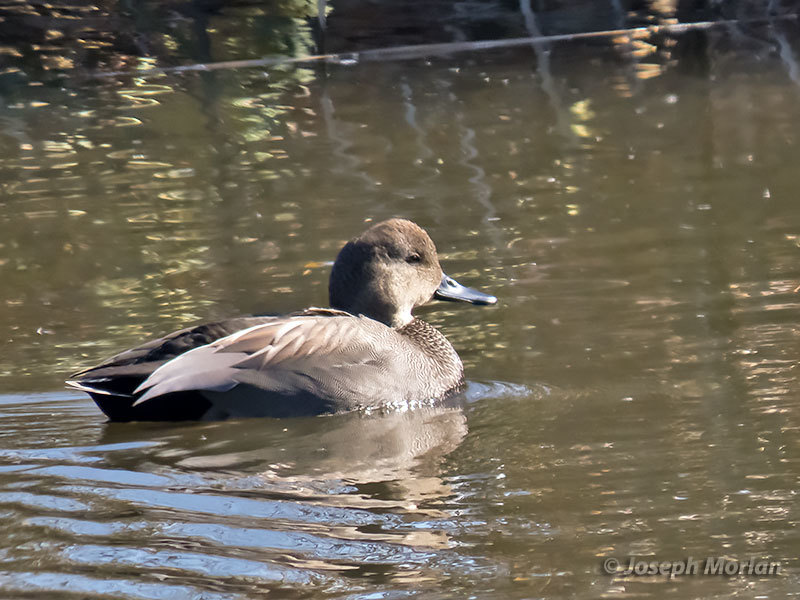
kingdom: Animalia
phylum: Chordata
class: Aves
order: Anseriformes
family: Anatidae
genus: Mareca
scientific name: Mareca strepera
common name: Gadwall
